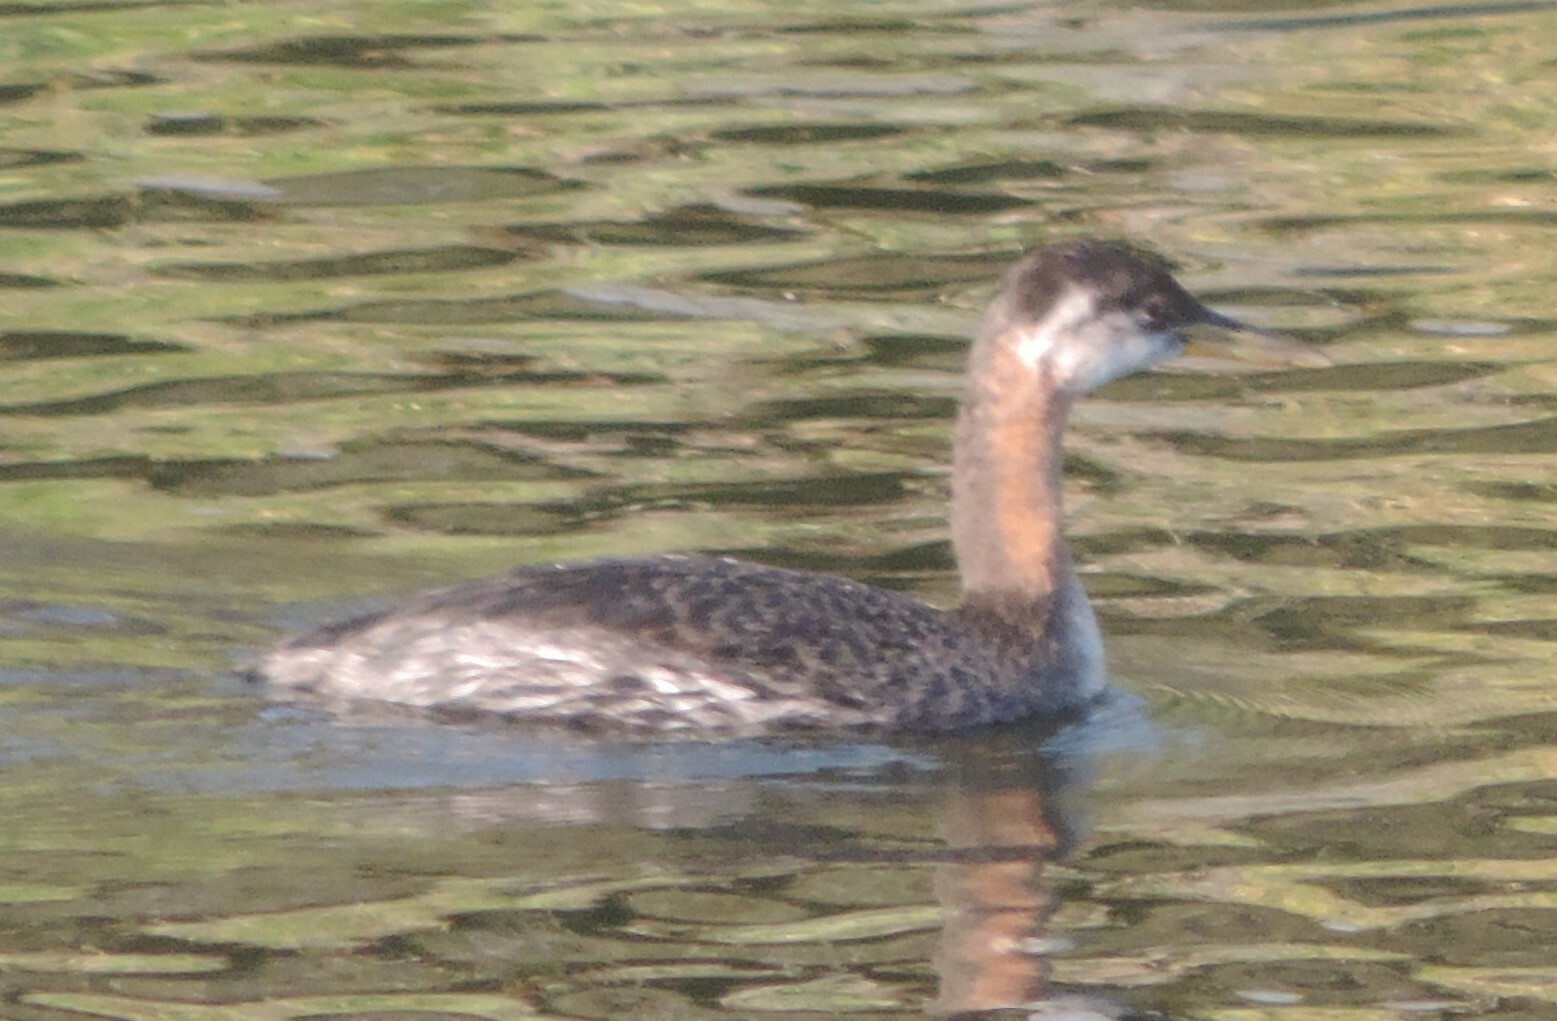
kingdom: Animalia
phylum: Chordata
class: Aves
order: Podicipediformes
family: Podicipedidae
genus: Podiceps
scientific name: Podiceps grisegena
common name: Red-necked grebe
